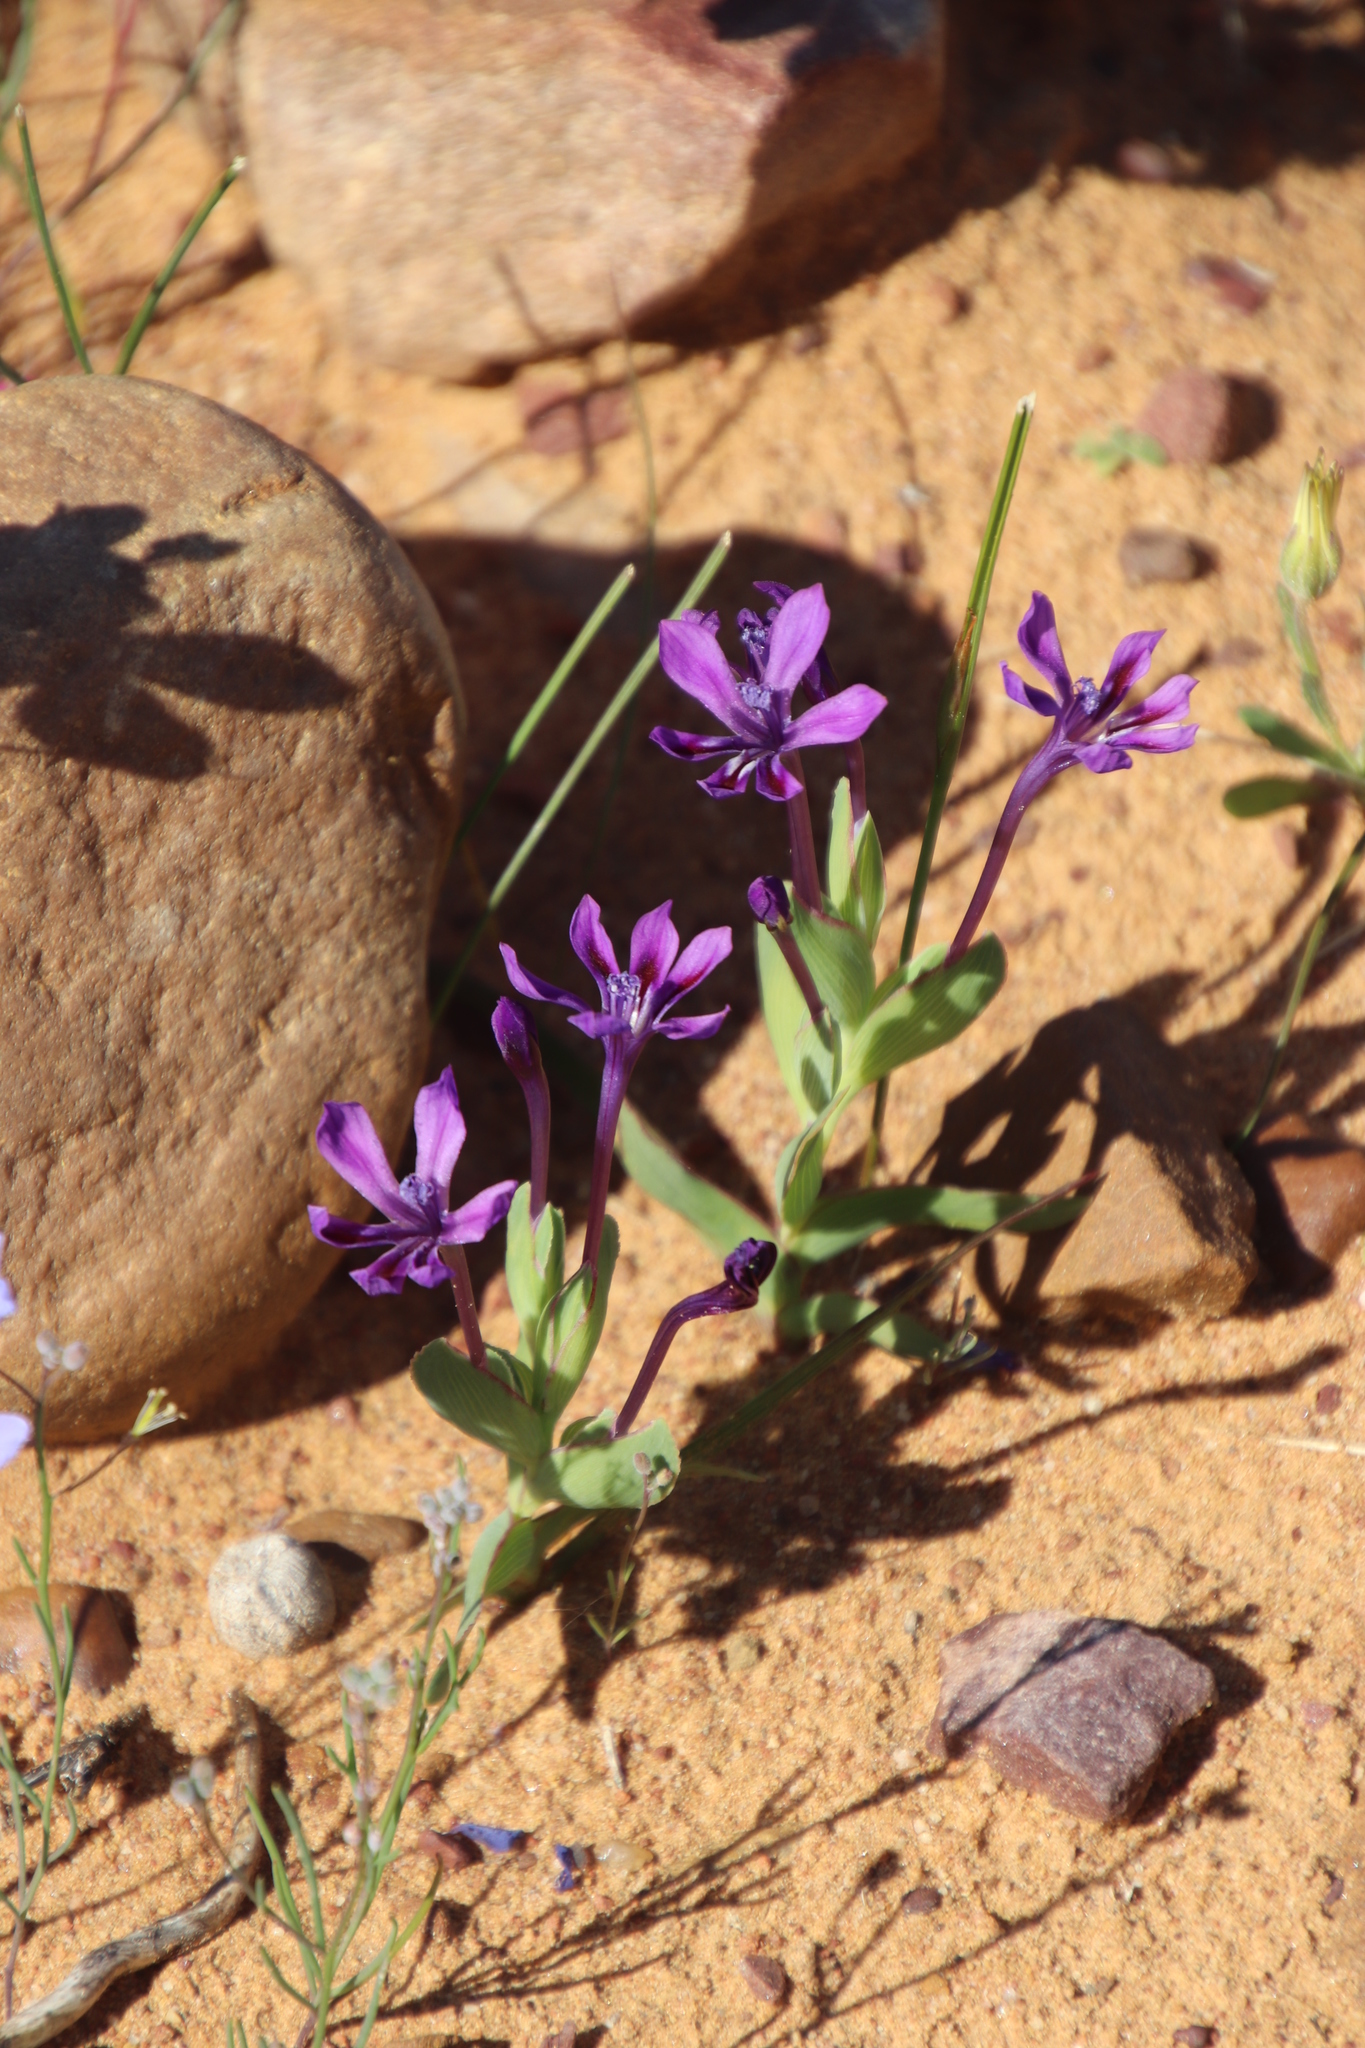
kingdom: Plantae
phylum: Tracheophyta
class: Liliopsida
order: Asparagales
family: Iridaceae
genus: Lapeirousia
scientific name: Lapeirousia jacquinii
